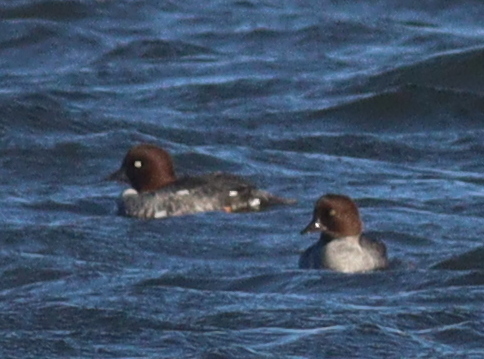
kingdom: Animalia
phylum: Chordata
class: Aves
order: Anseriformes
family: Anatidae
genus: Bucephala
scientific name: Bucephala clangula
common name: Common goldeneye
